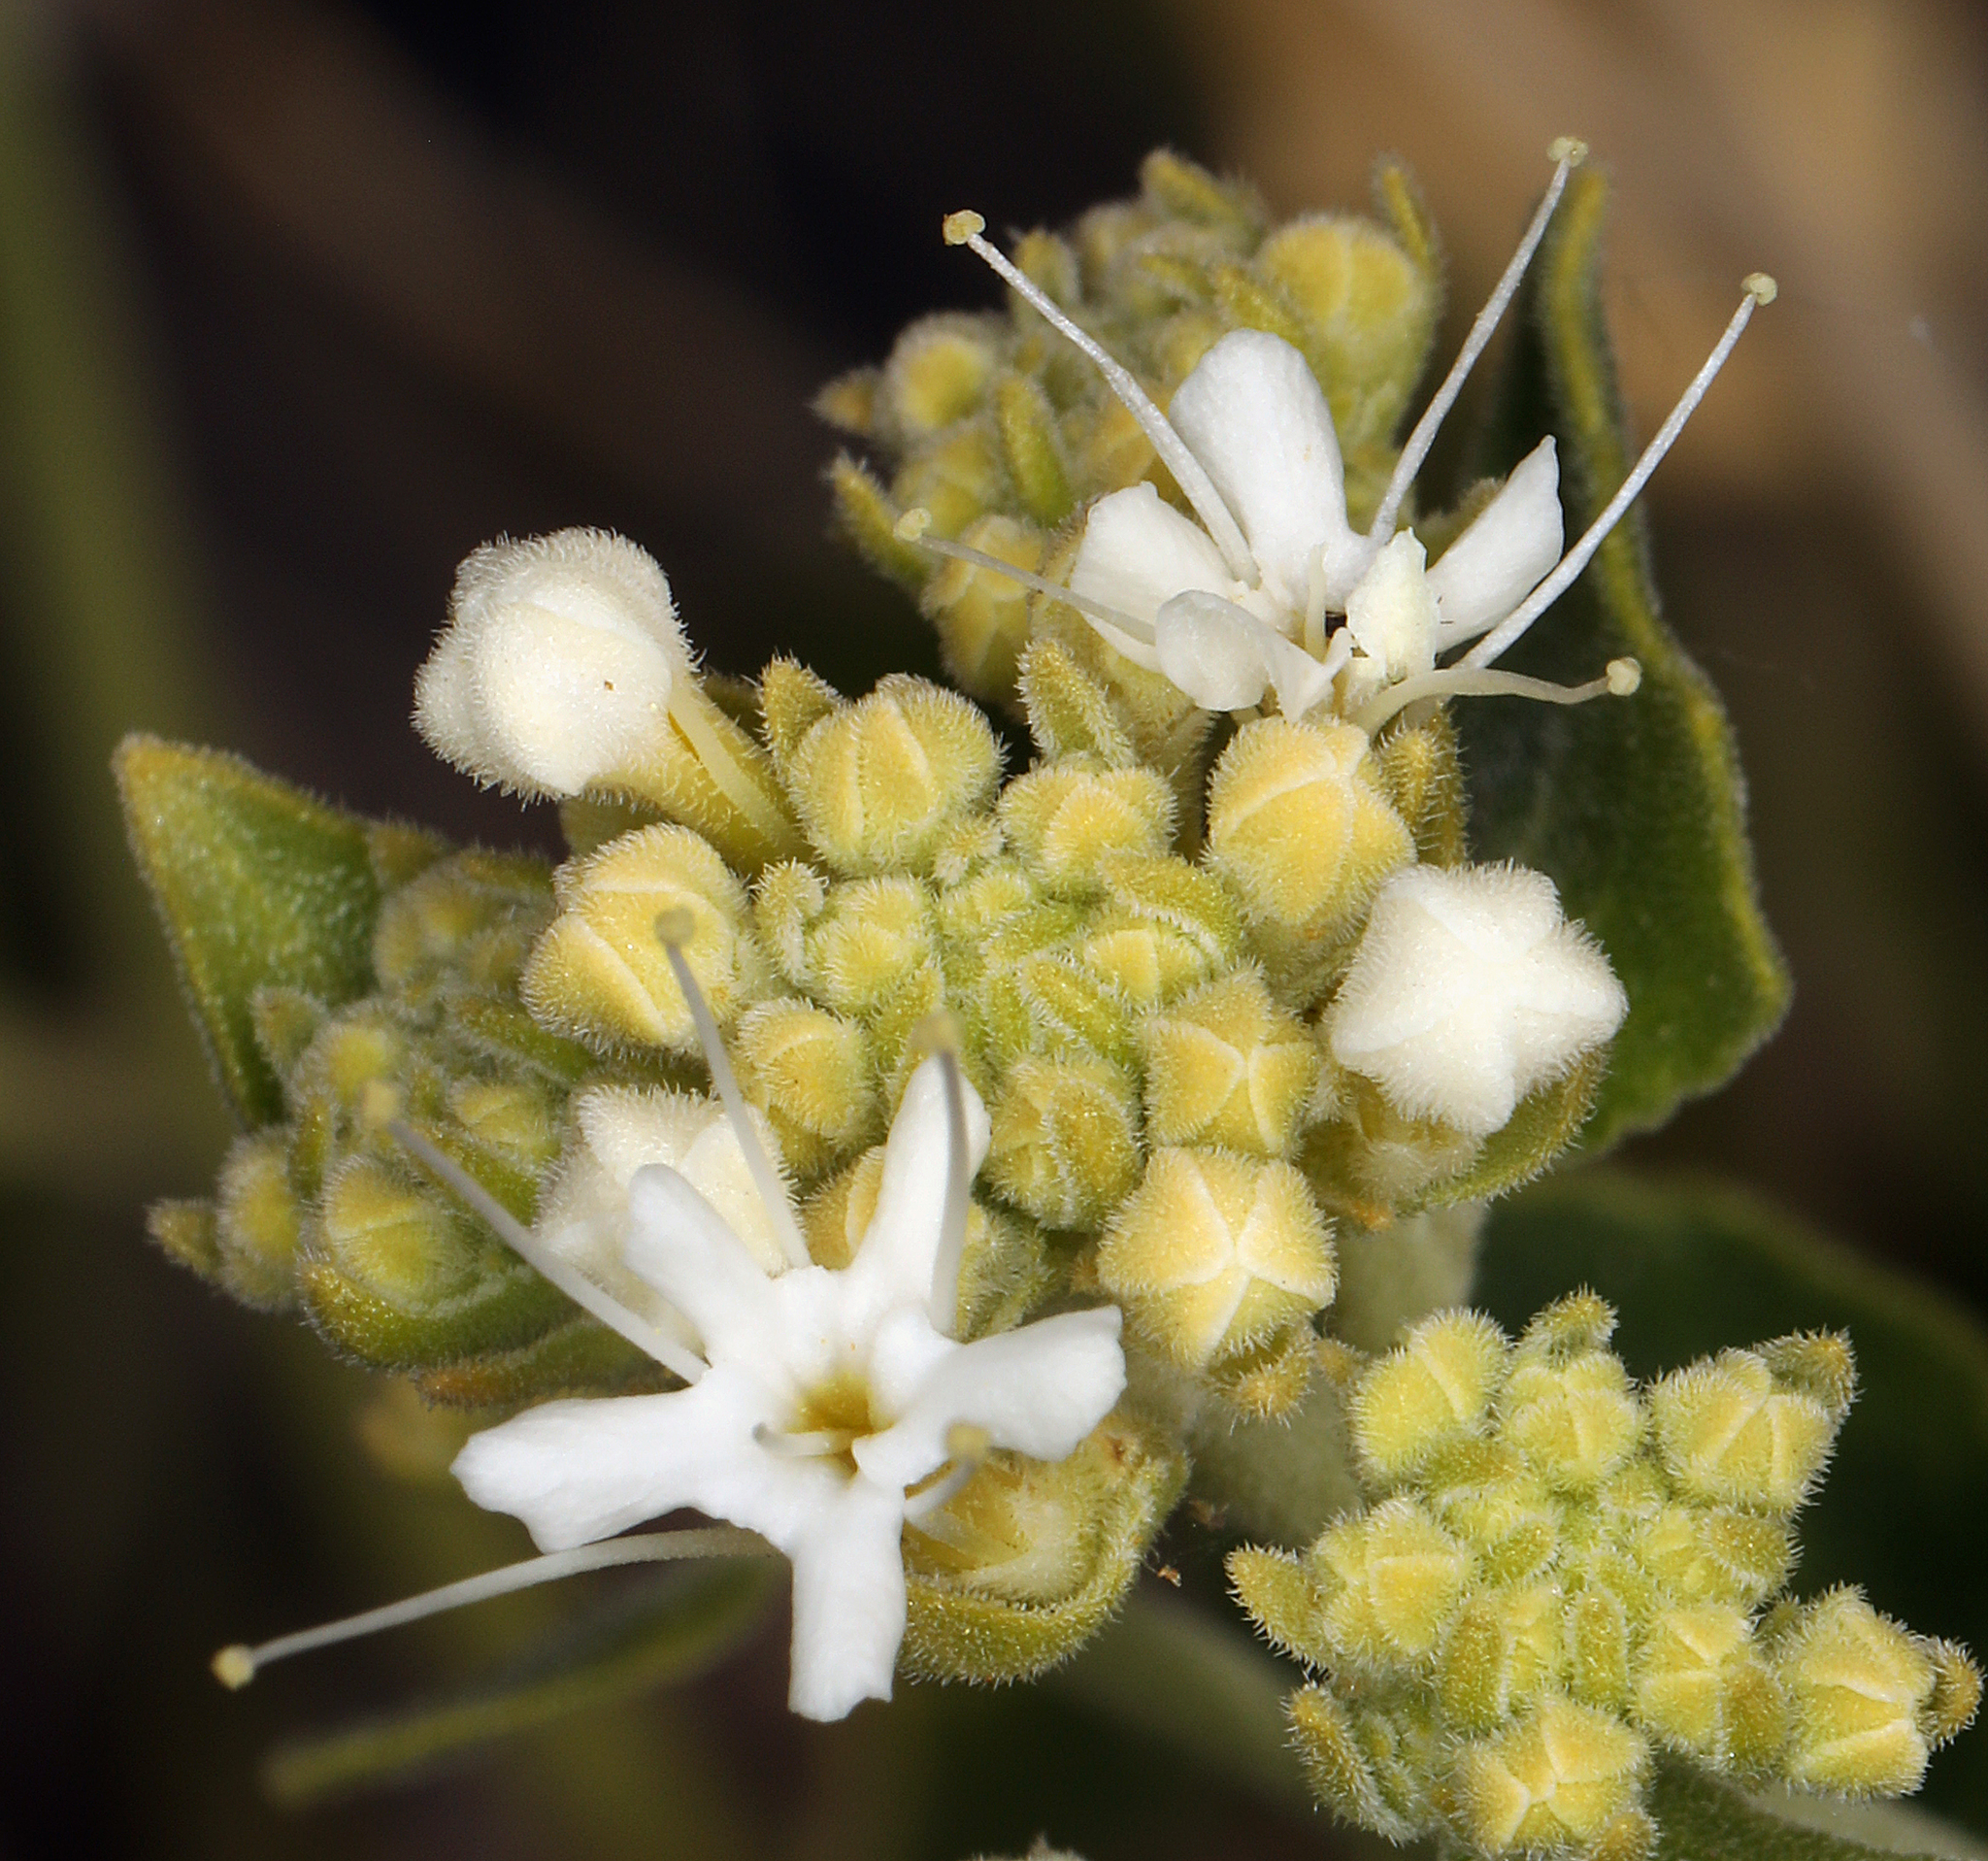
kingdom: Plantae
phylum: Tracheophyta
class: Magnoliopsida
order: Cornales
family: Loasaceae
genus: Petalonyx
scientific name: Petalonyx nitidus
